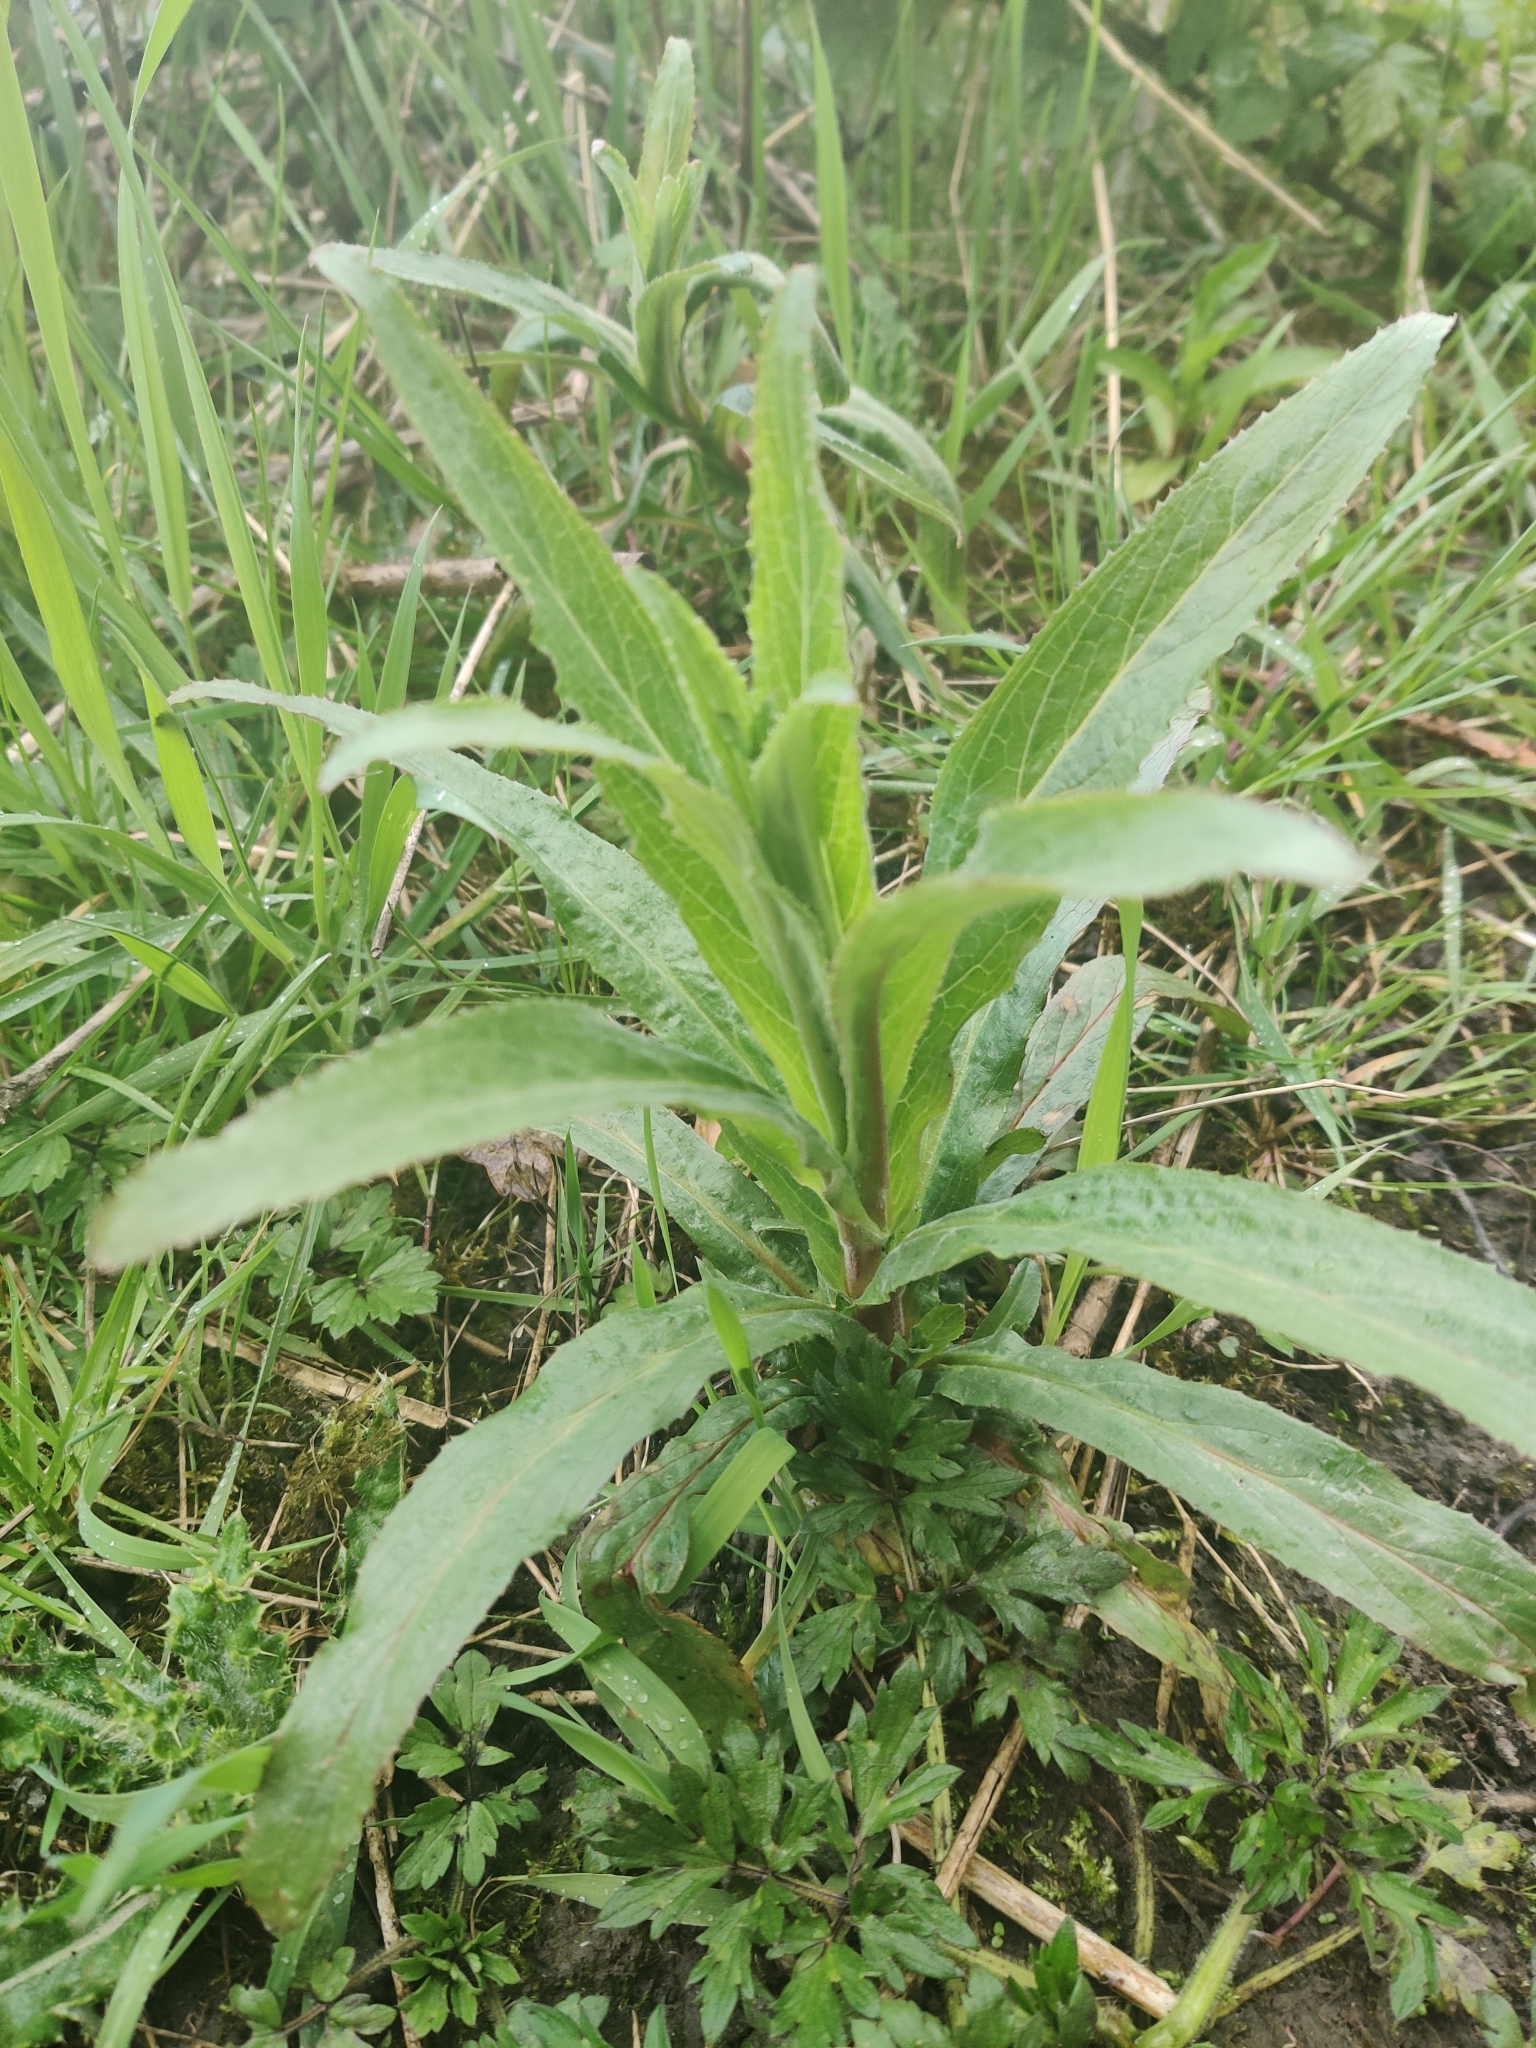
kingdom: Plantae
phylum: Tracheophyta
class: Magnoliopsida
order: Myrtales
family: Onagraceae
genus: Epilobium
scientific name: Epilobium hirsutum
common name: Great willowherb
